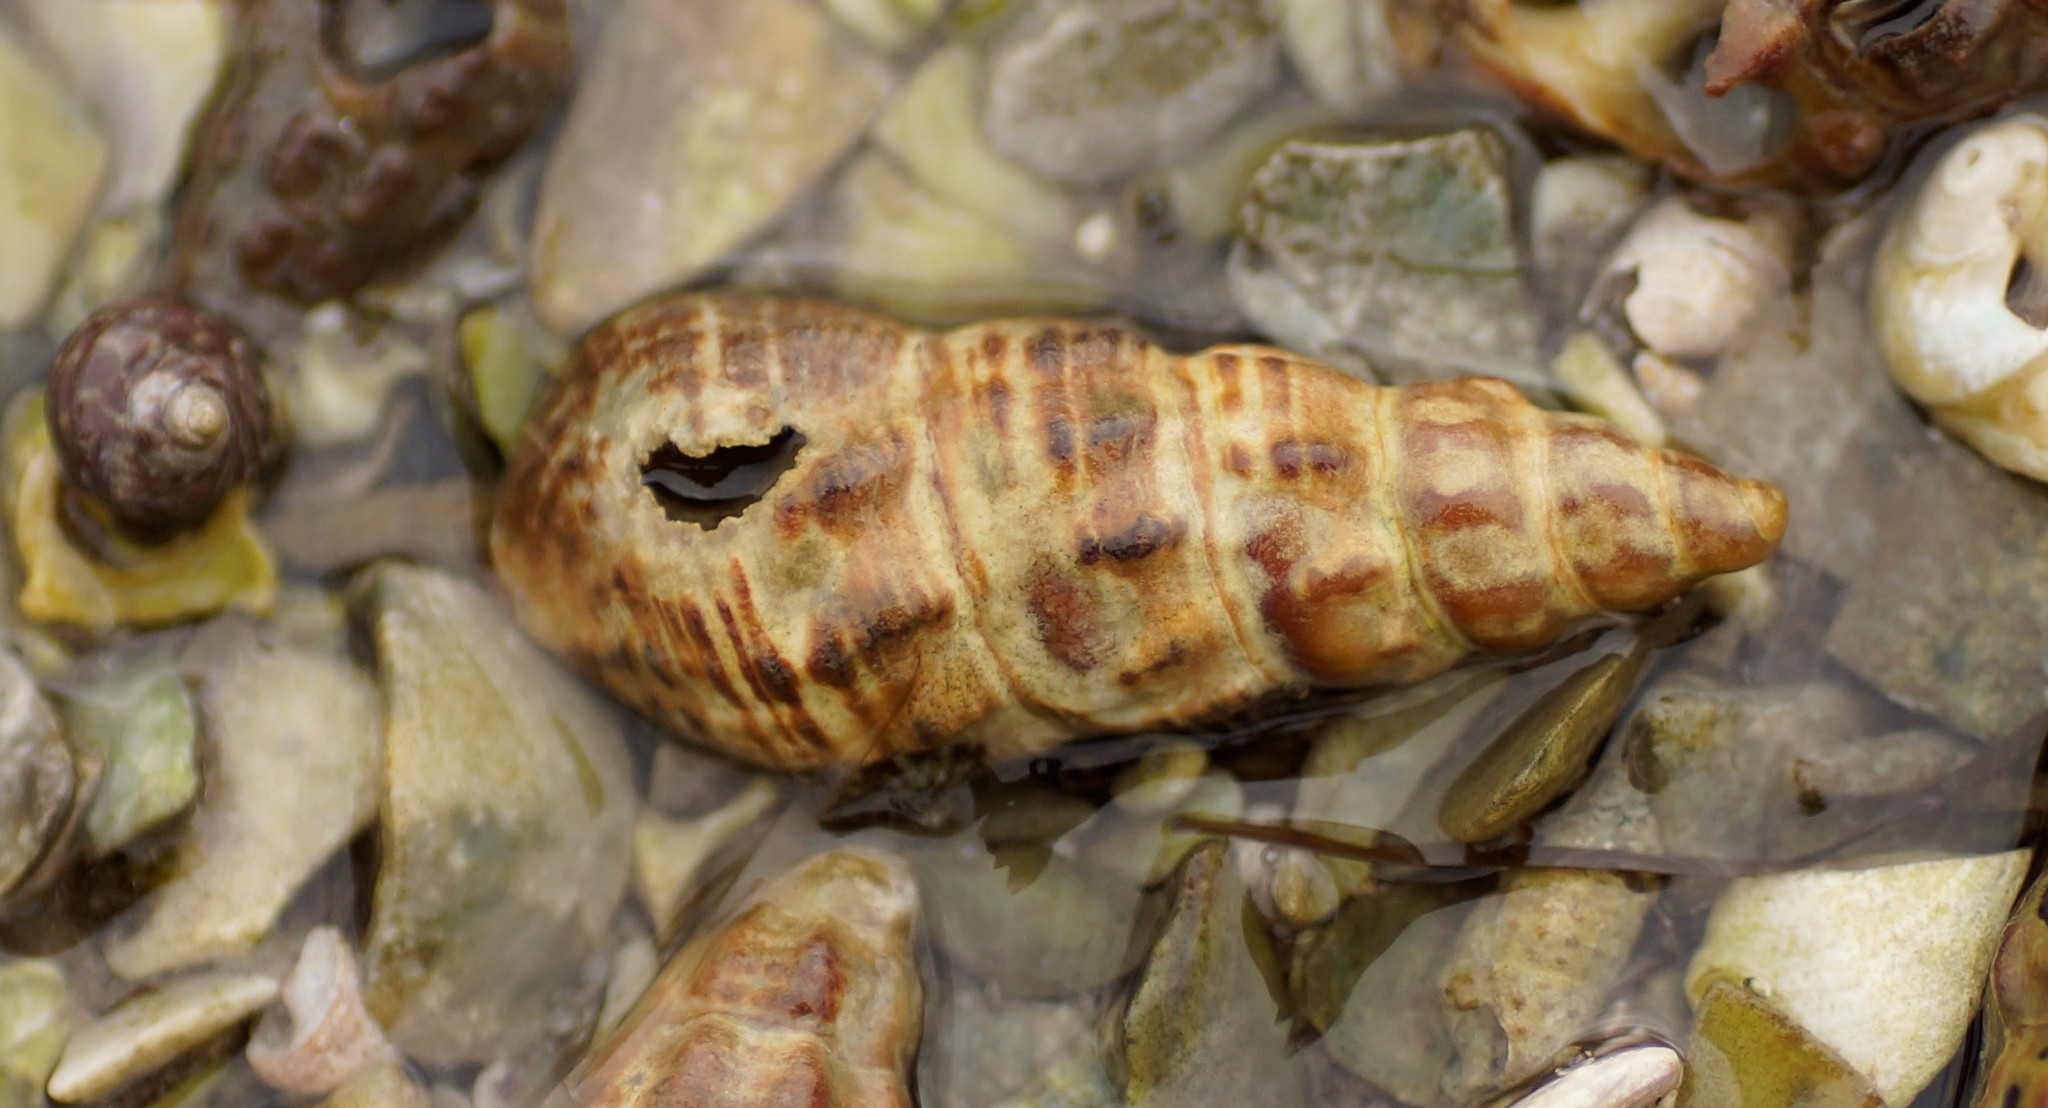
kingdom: Animalia
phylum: Mollusca
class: Gastropoda
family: Batillariidae
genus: Batillaria
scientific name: Batillaria australis
